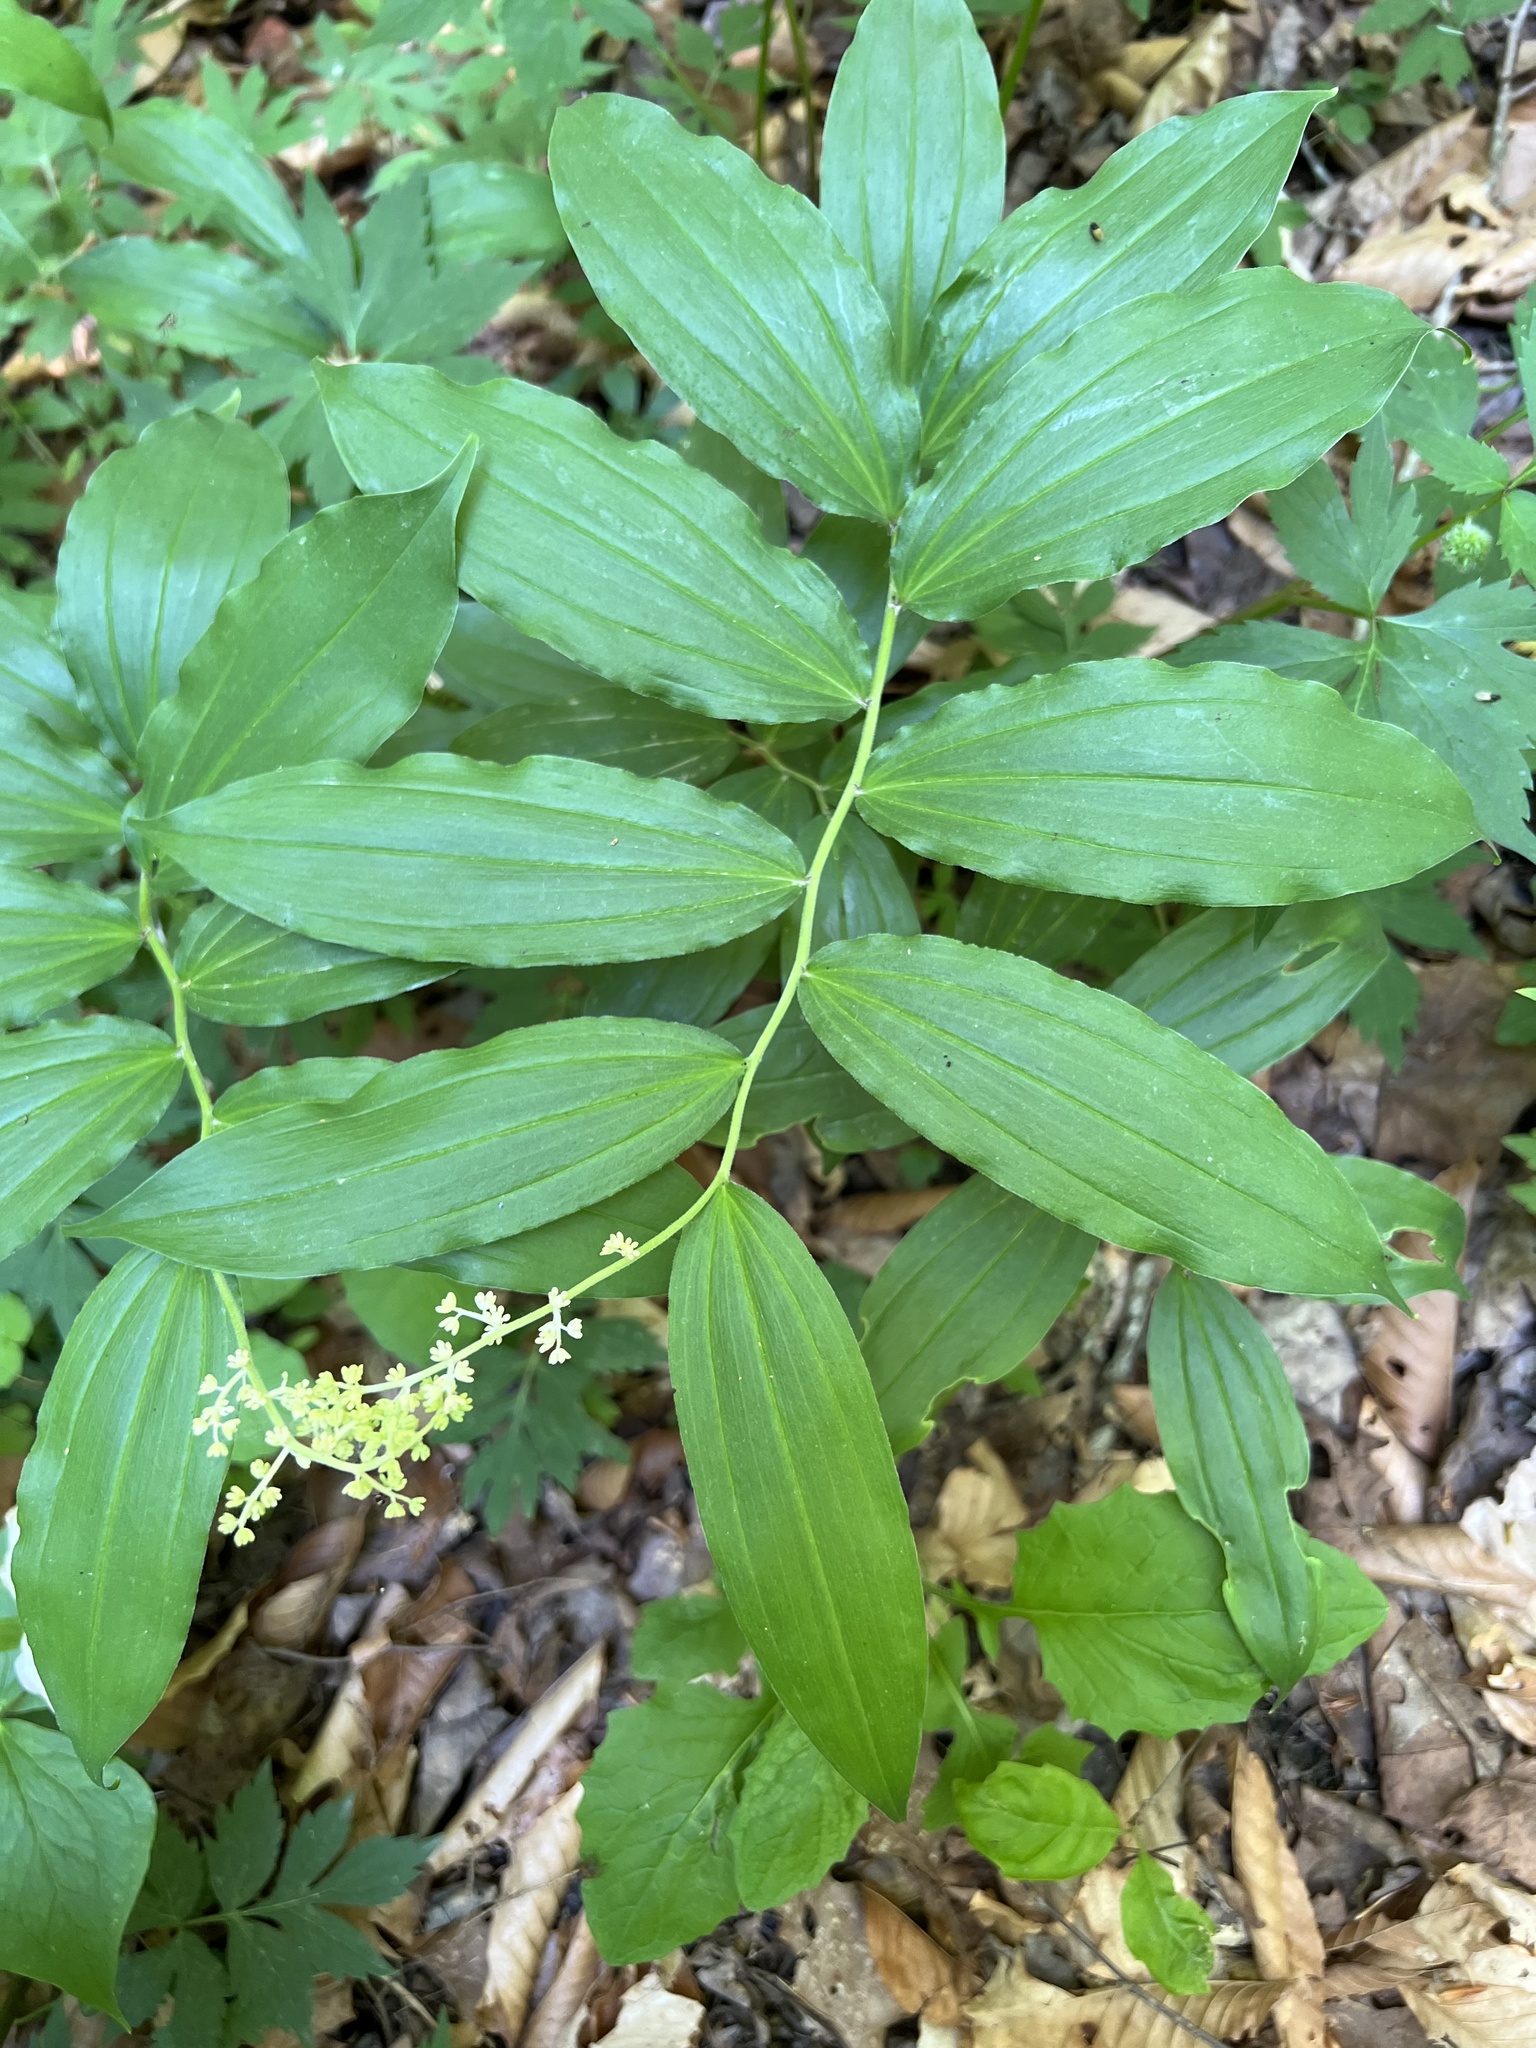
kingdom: Plantae
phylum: Tracheophyta
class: Liliopsida
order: Asparagales
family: Asparagaceae
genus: Maianthemum
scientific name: Maianthemum racemosum
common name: False spikenard
